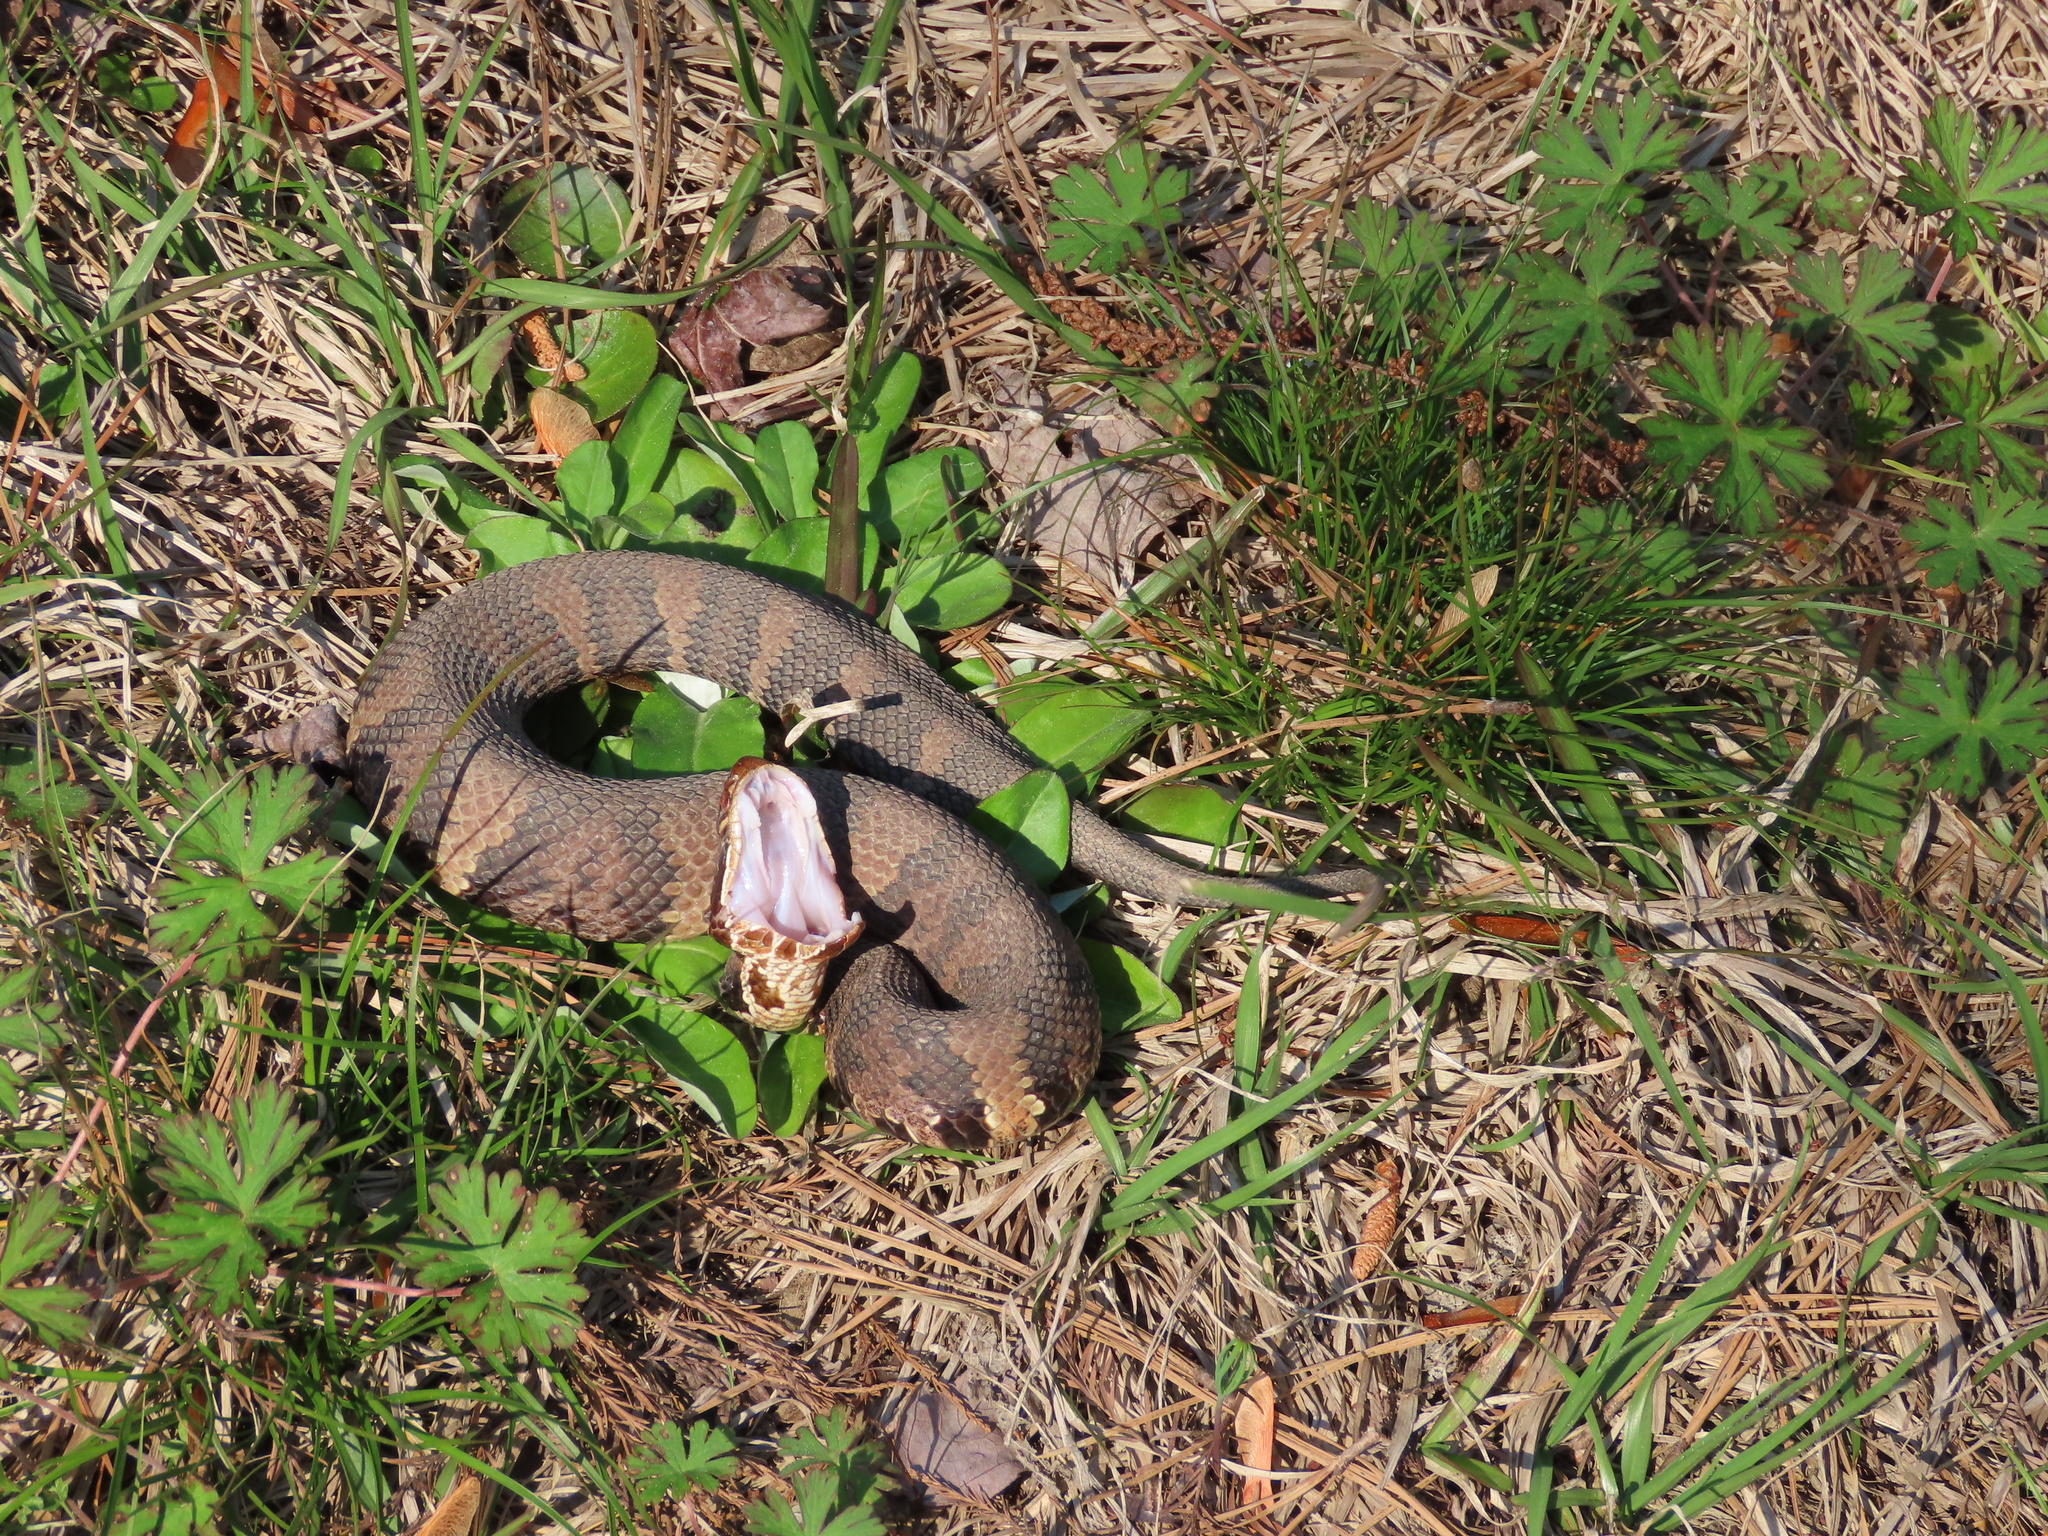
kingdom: Animalia
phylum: Chordata
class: Squamata
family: Viperidae
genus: Agkistrodon
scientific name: Agkistrodon piscivorus
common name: Cottonmouth
